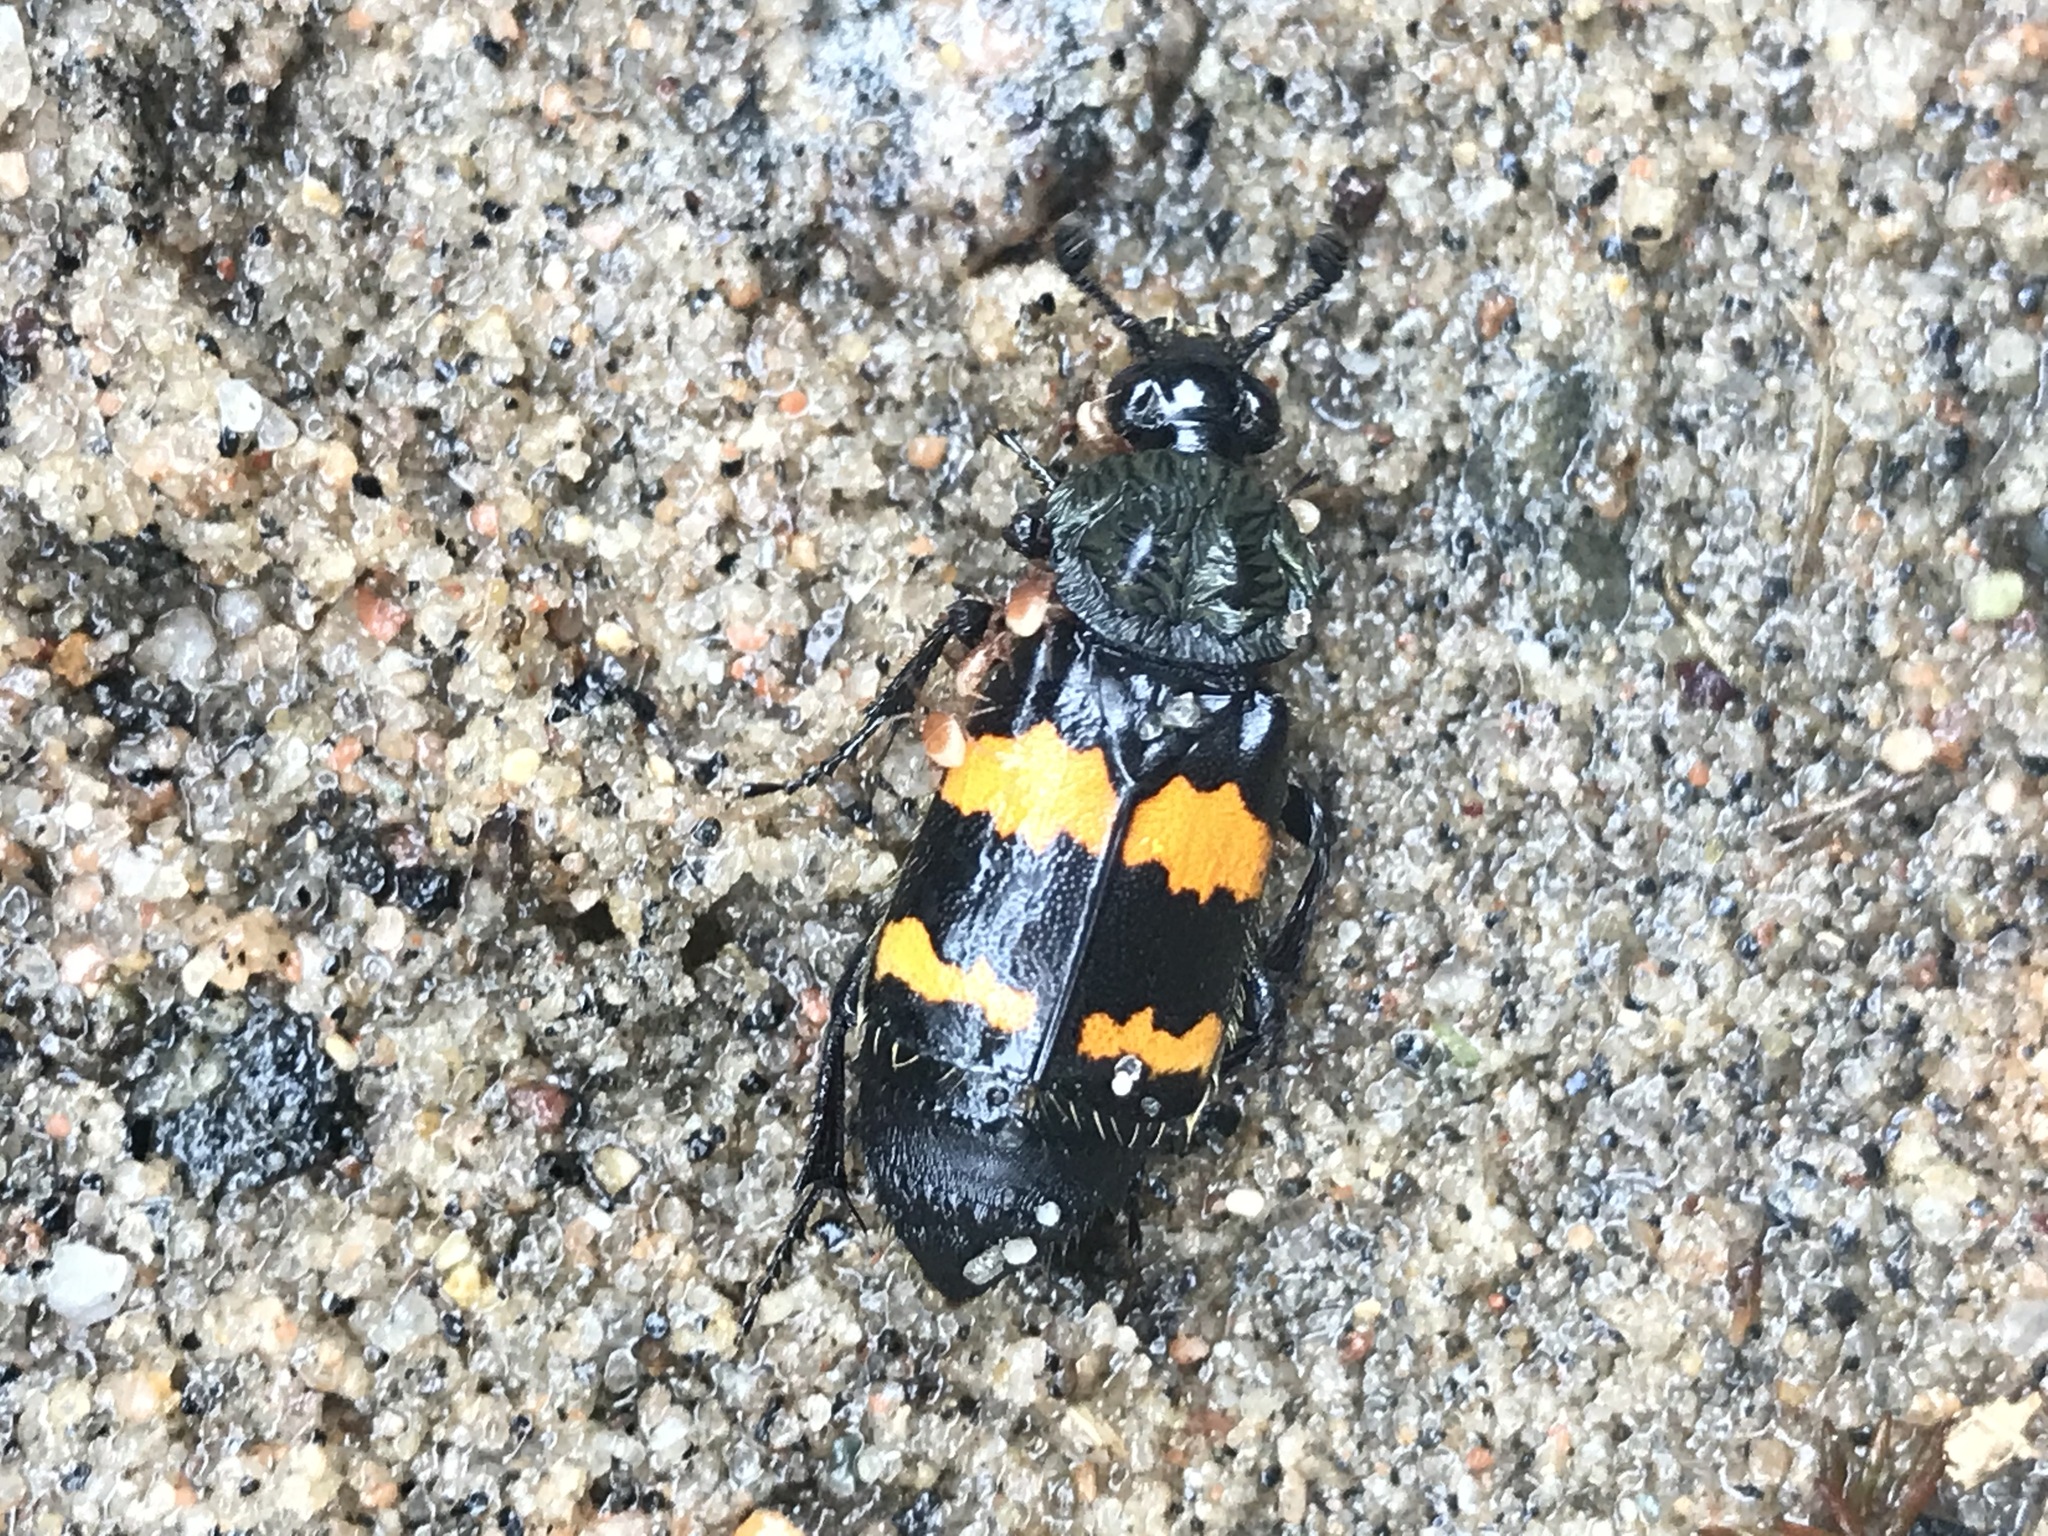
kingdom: Animalia
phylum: Arthropoda
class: Insecta
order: Coleoptera
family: Staphylinidae
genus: Nicrophorus
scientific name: Nicrophorus tomentosus
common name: Tomentose burying beetle
